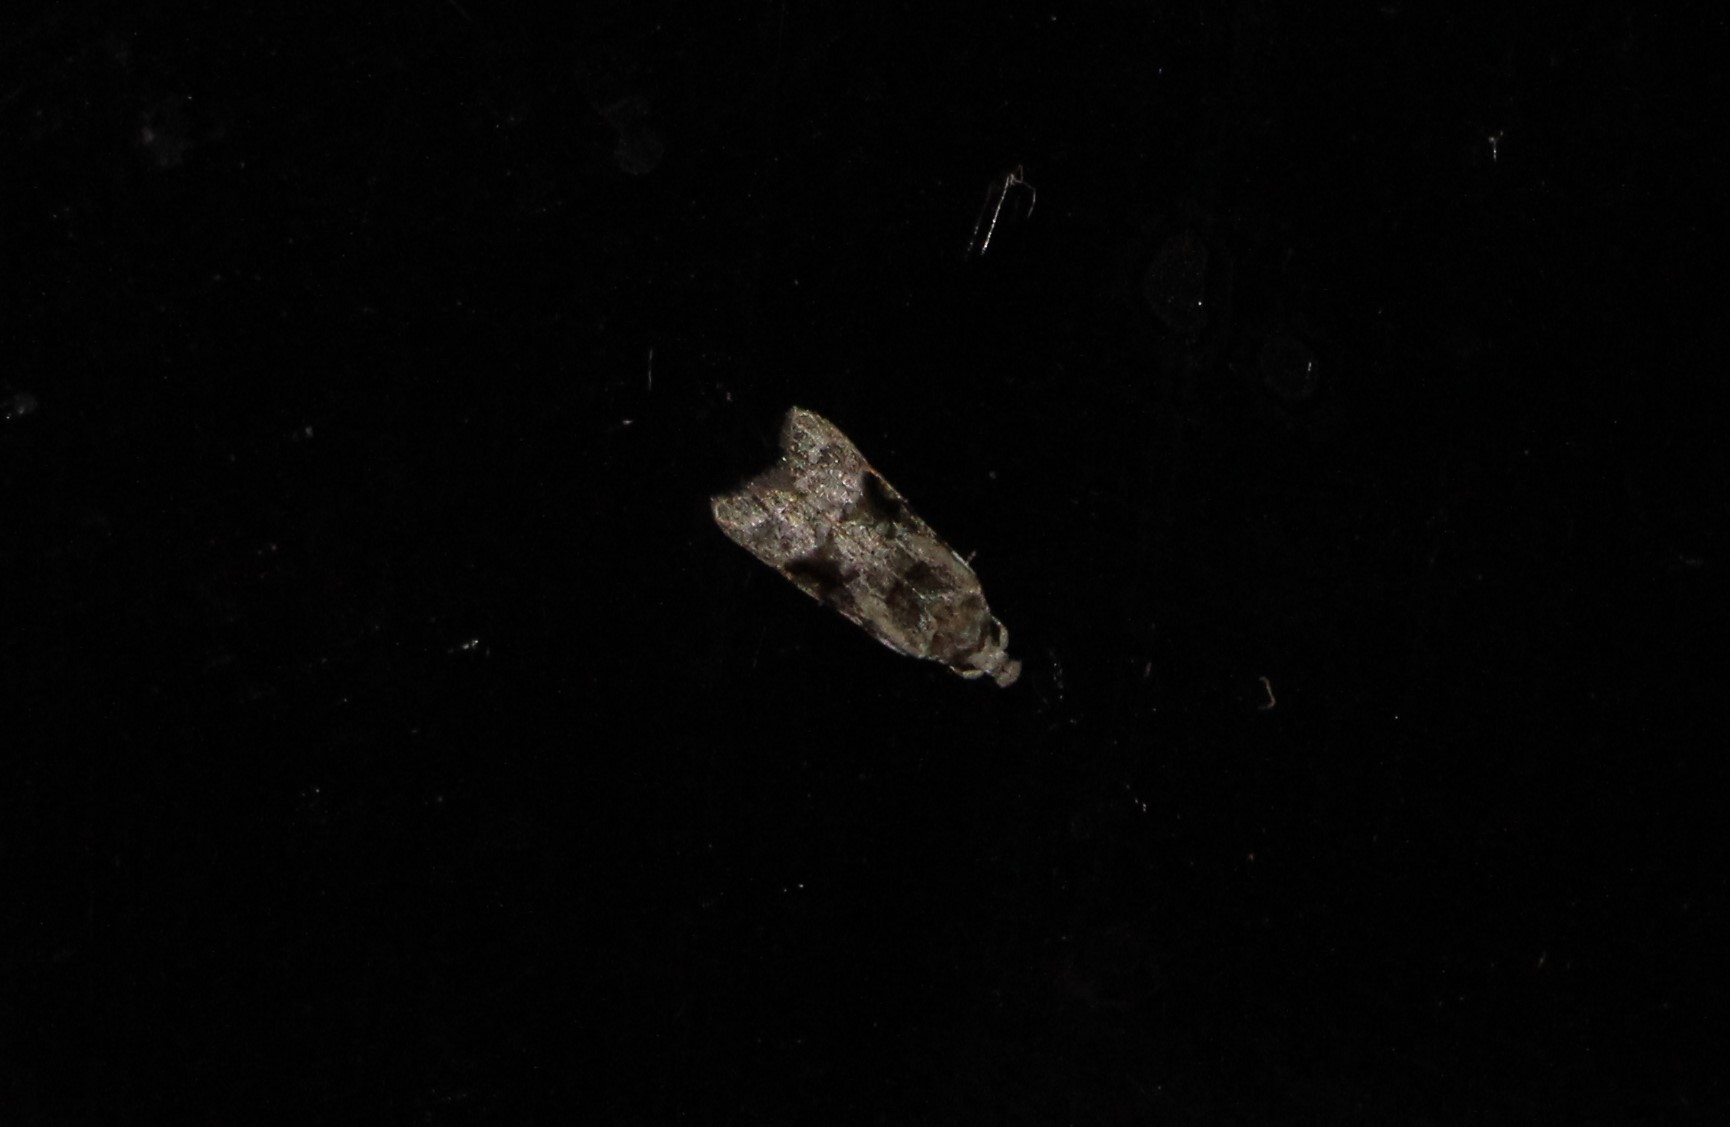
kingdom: Animalia
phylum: Arthropoda
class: Insecta
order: Lepidoptera
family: Carposinidae
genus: Coscinoptycha
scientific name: Coscinoptycha improbana
